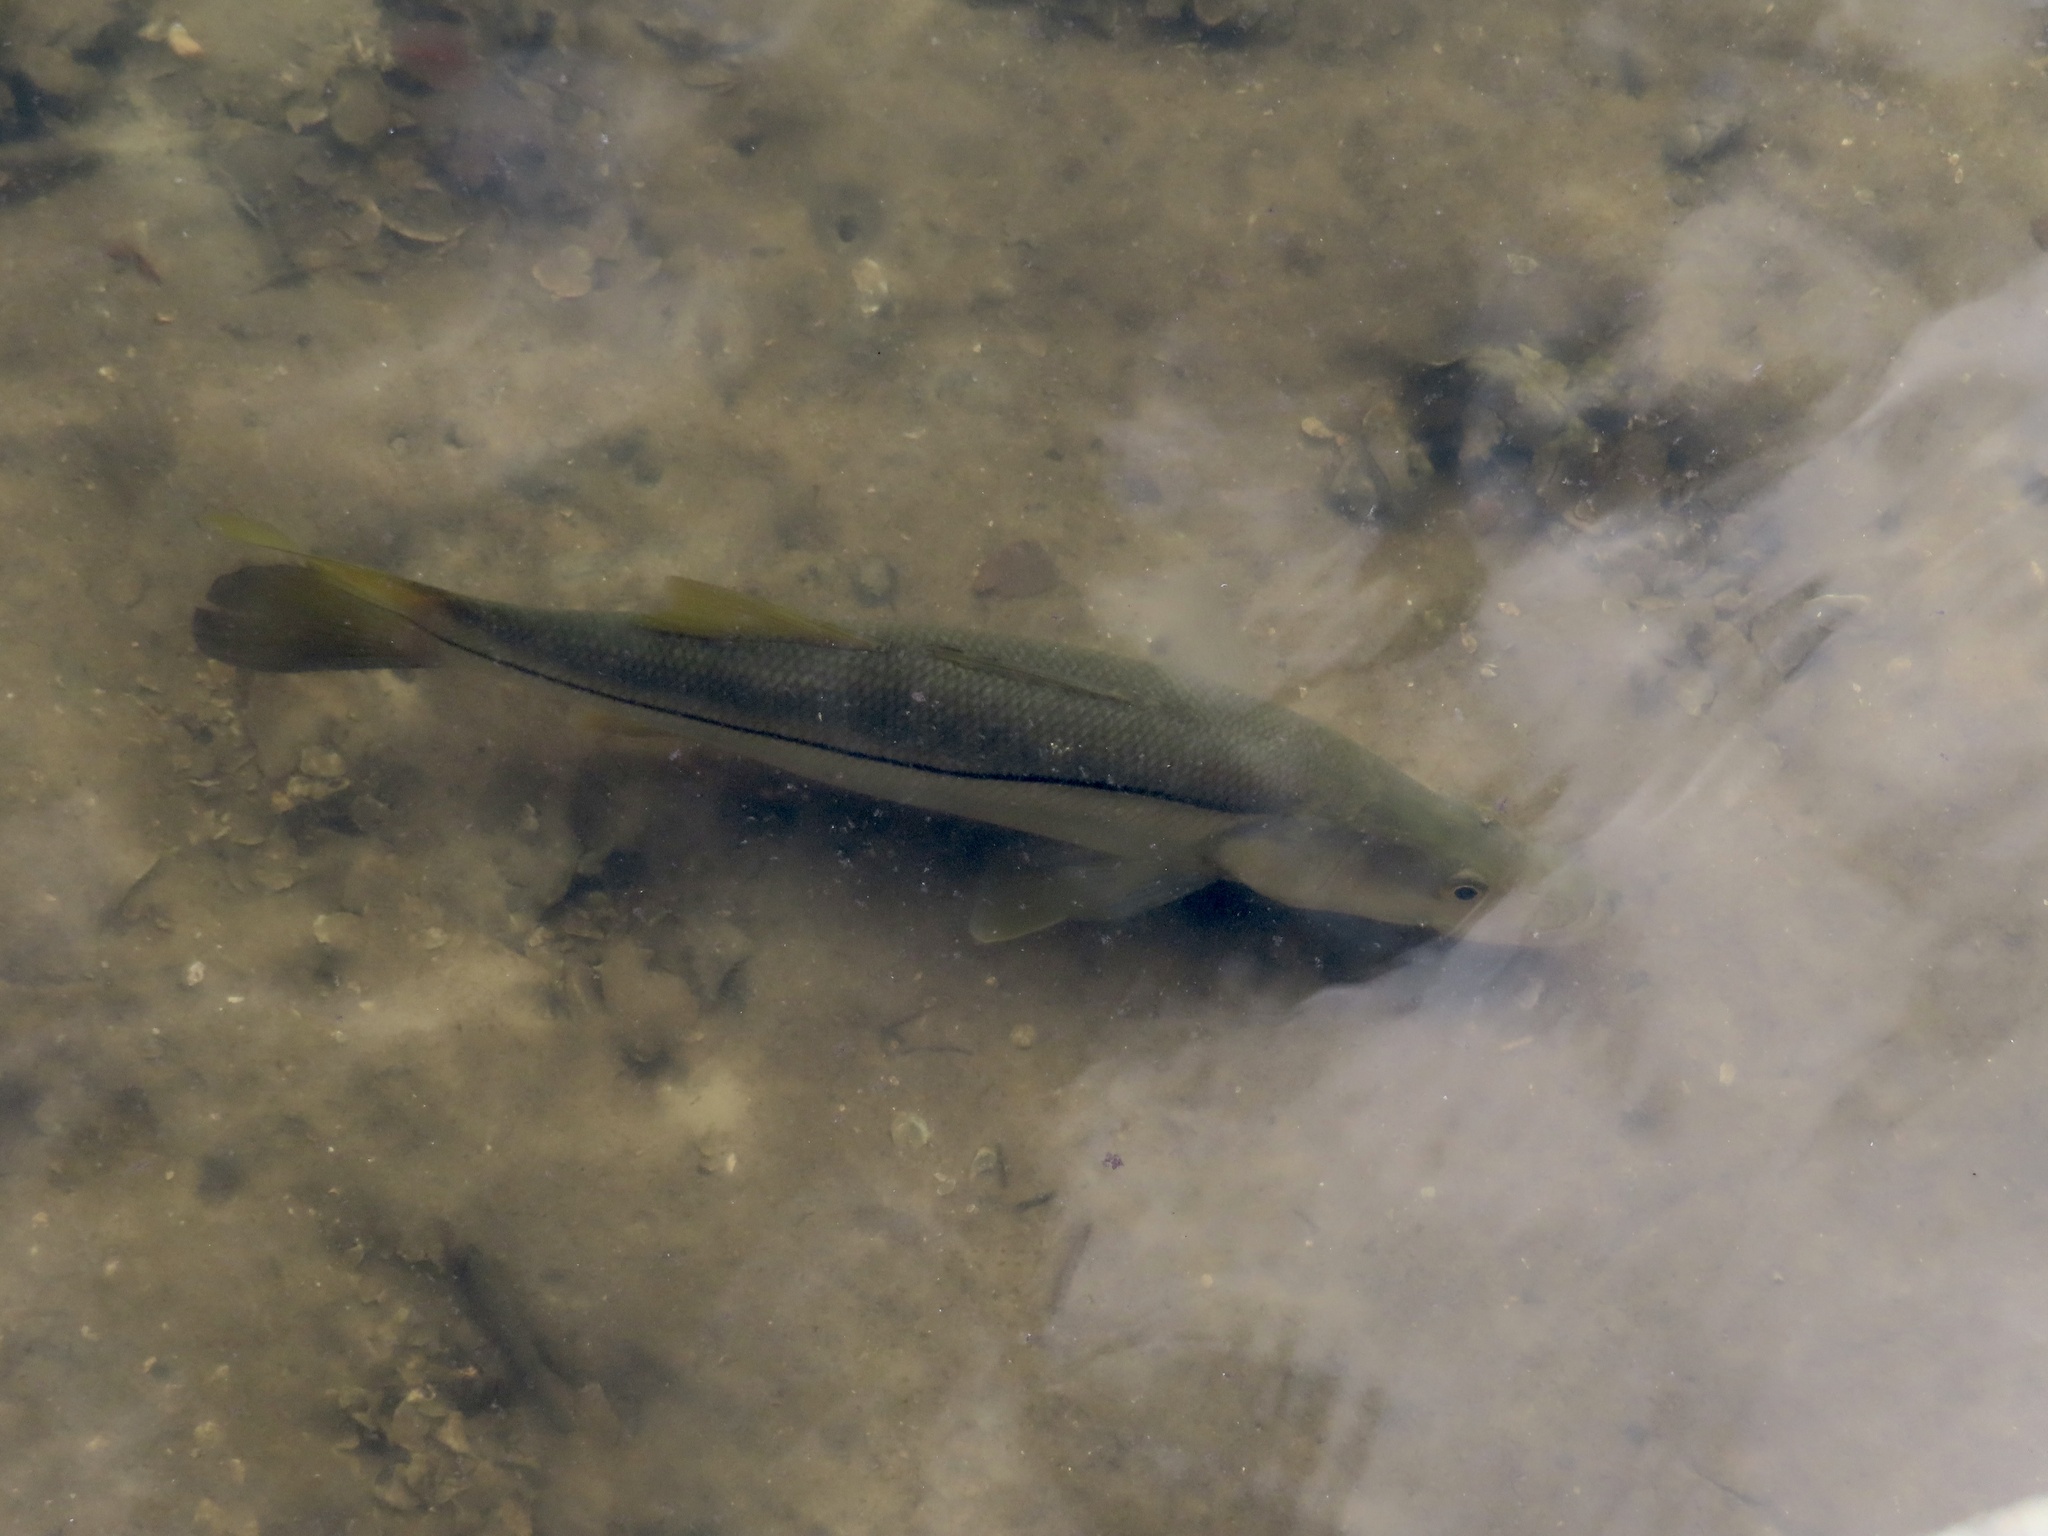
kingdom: Animalia
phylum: Chordata
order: Perciformes
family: Centropomidae
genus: Centropomus
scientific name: Centropomus undecimalis
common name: Snook
